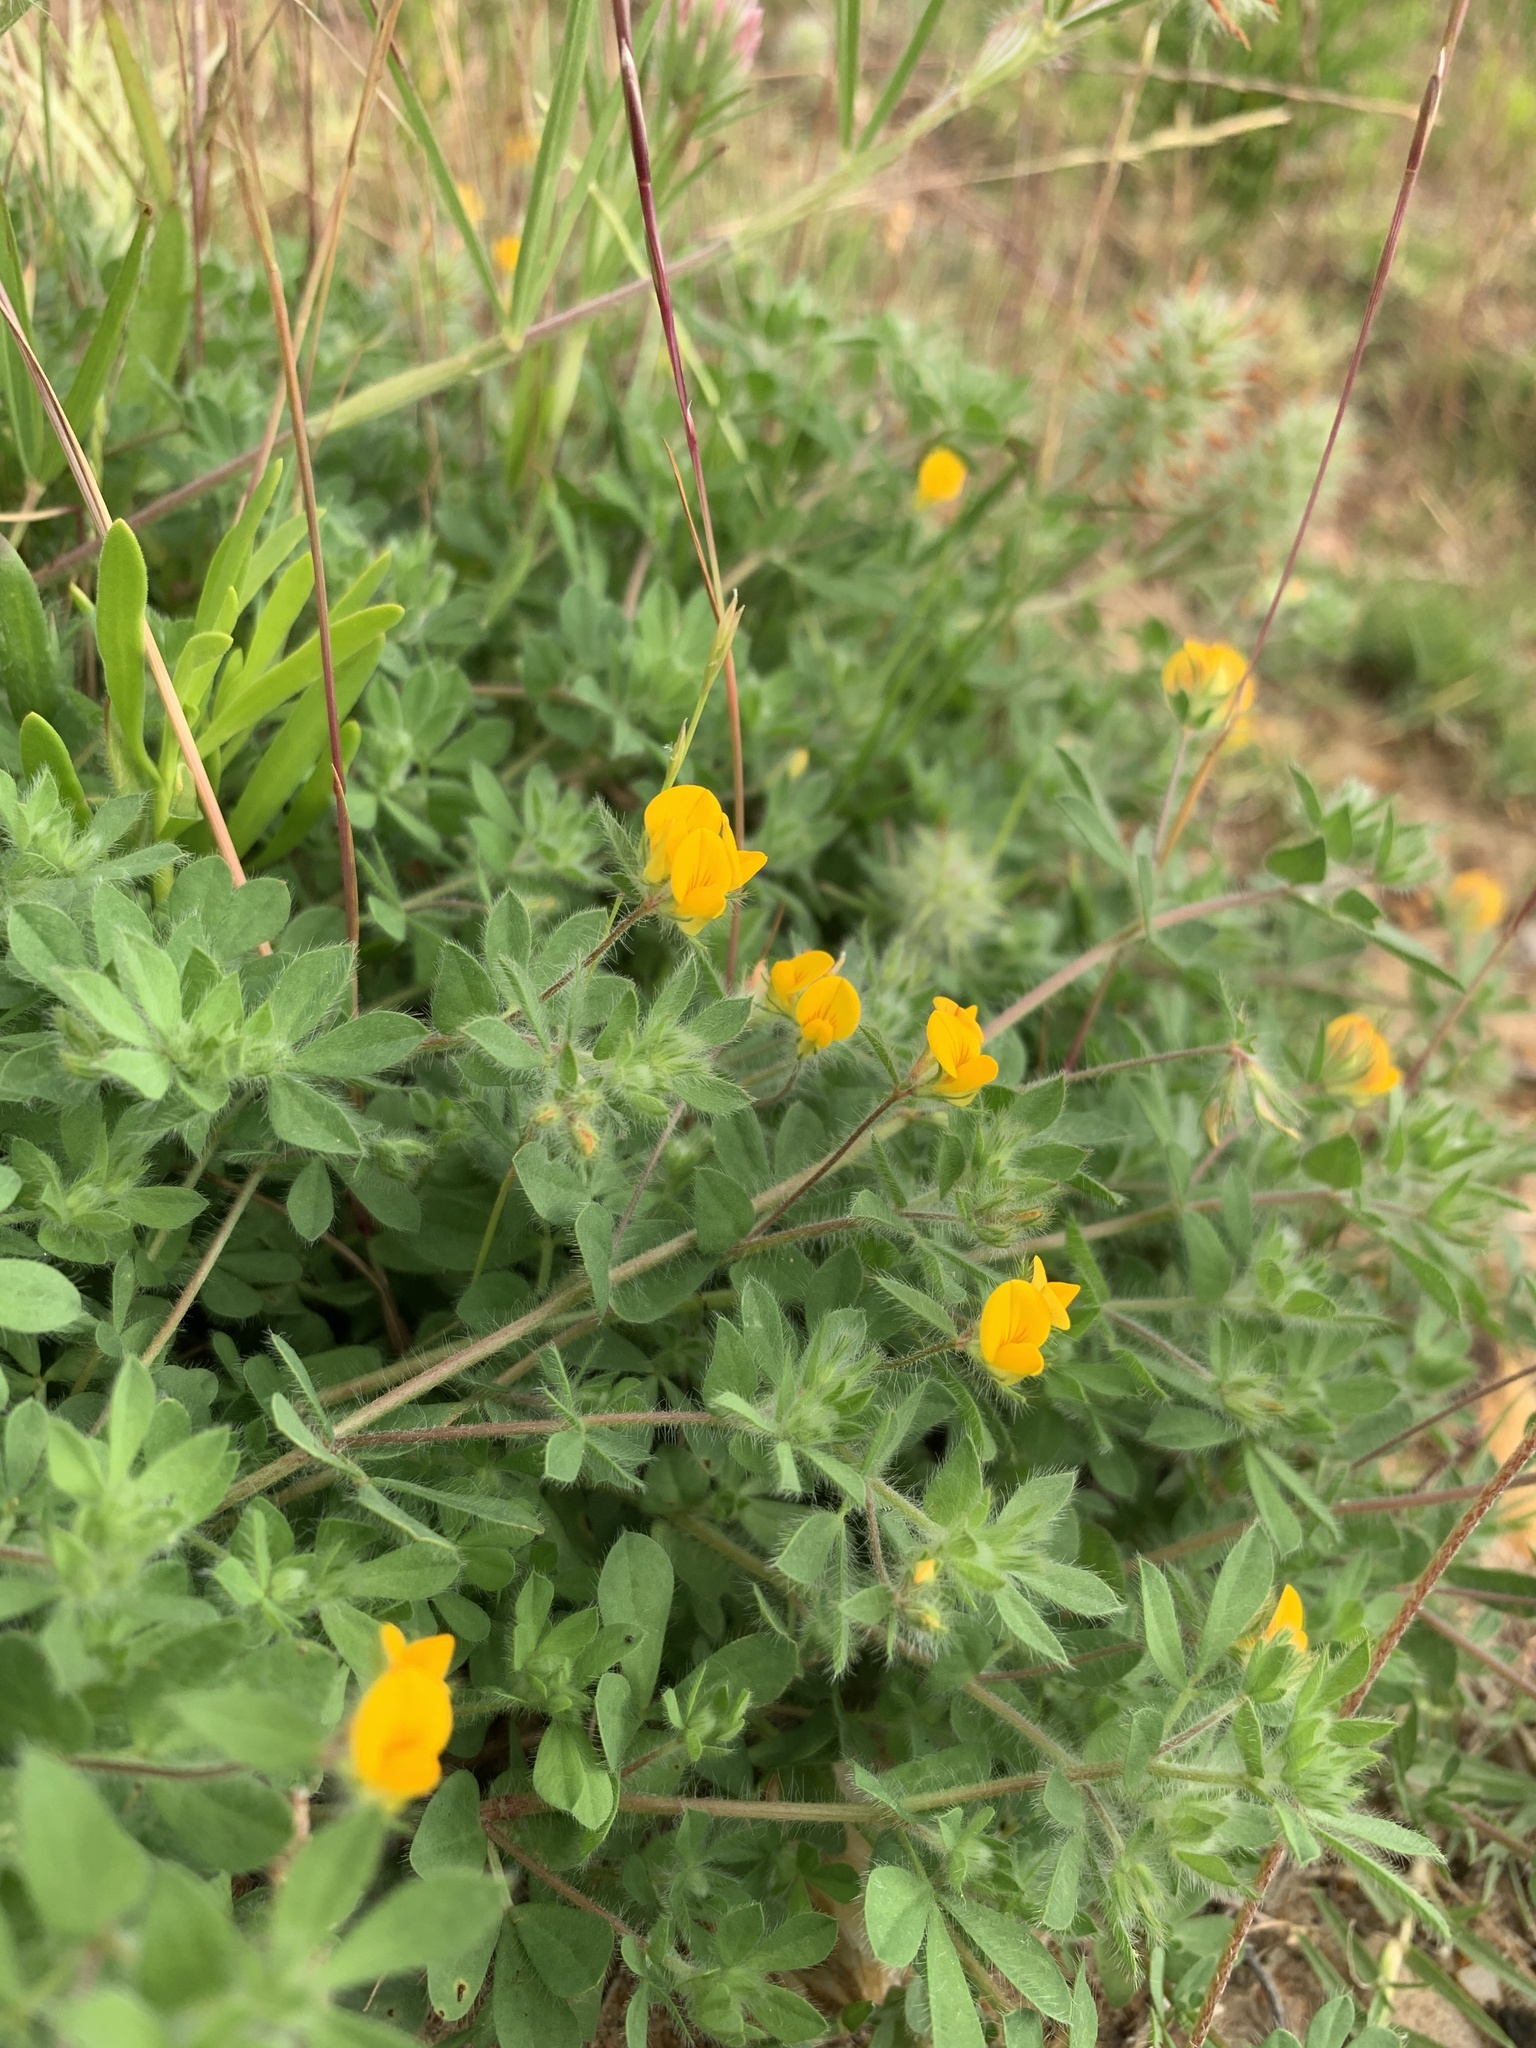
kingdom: Plantae
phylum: Tracheophyta
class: Magnoliopsida
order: Fabales
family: Fabaceae
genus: Lotus
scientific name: Lotus subbiflorus
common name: Hairy bird's-foot trefoil
